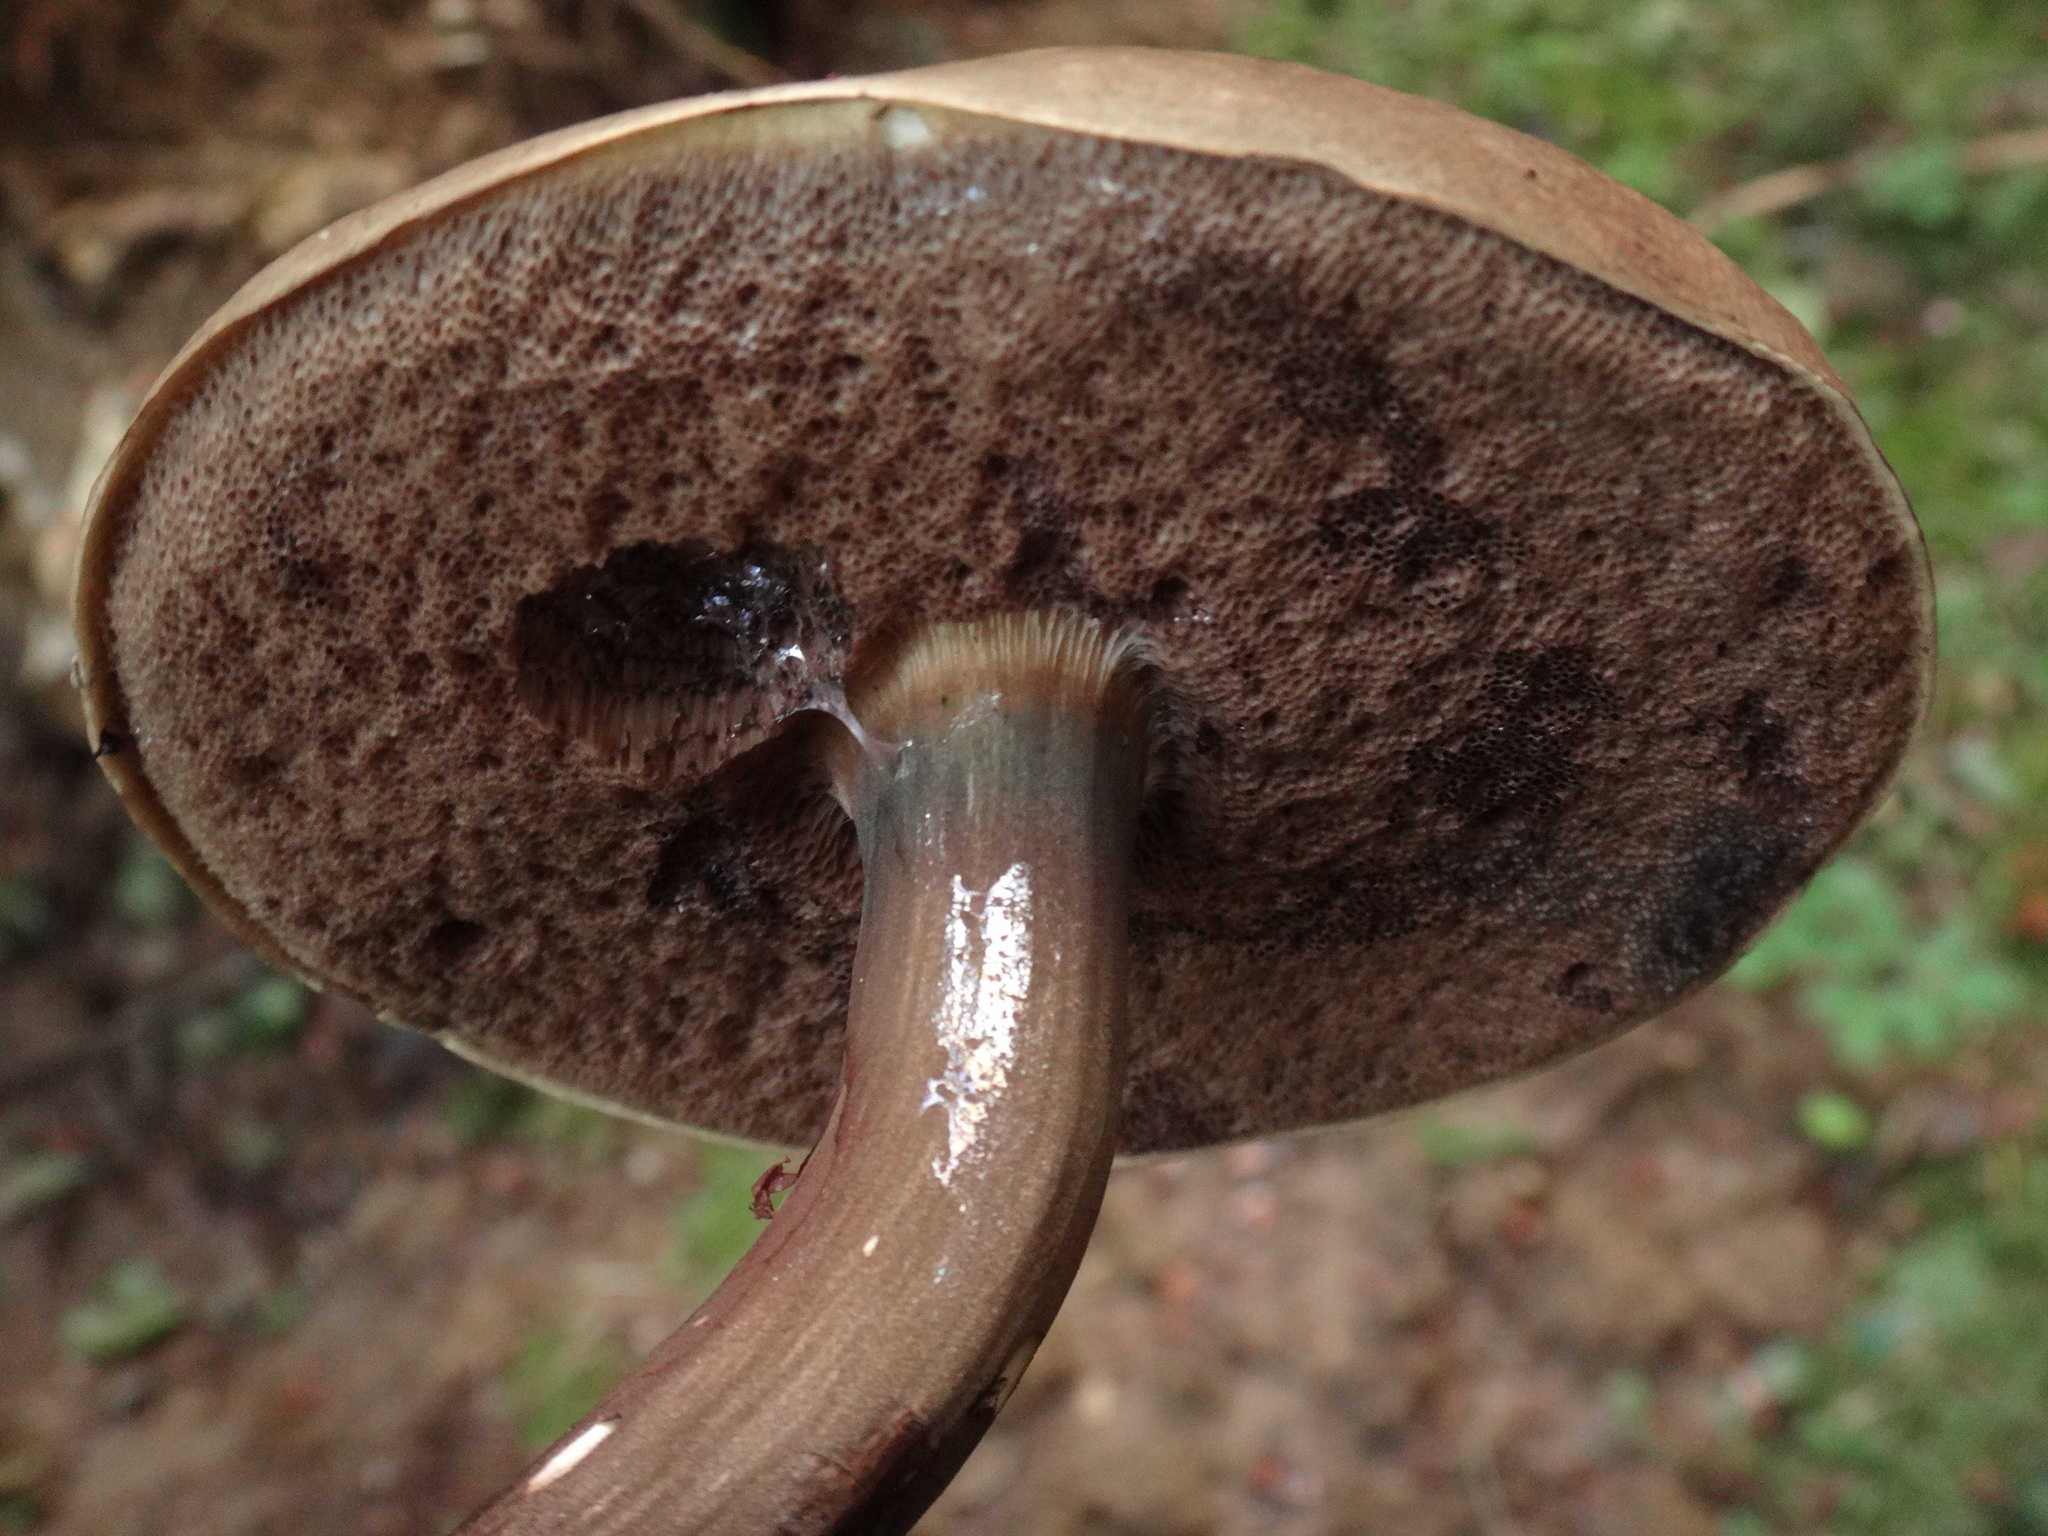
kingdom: Fungi
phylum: Basidiomycota
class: Agaricomycetes
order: Boletales
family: Boletaceae
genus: Porphyrellus
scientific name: Porphyrellus porphyrosporus
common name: Dusky bolete
